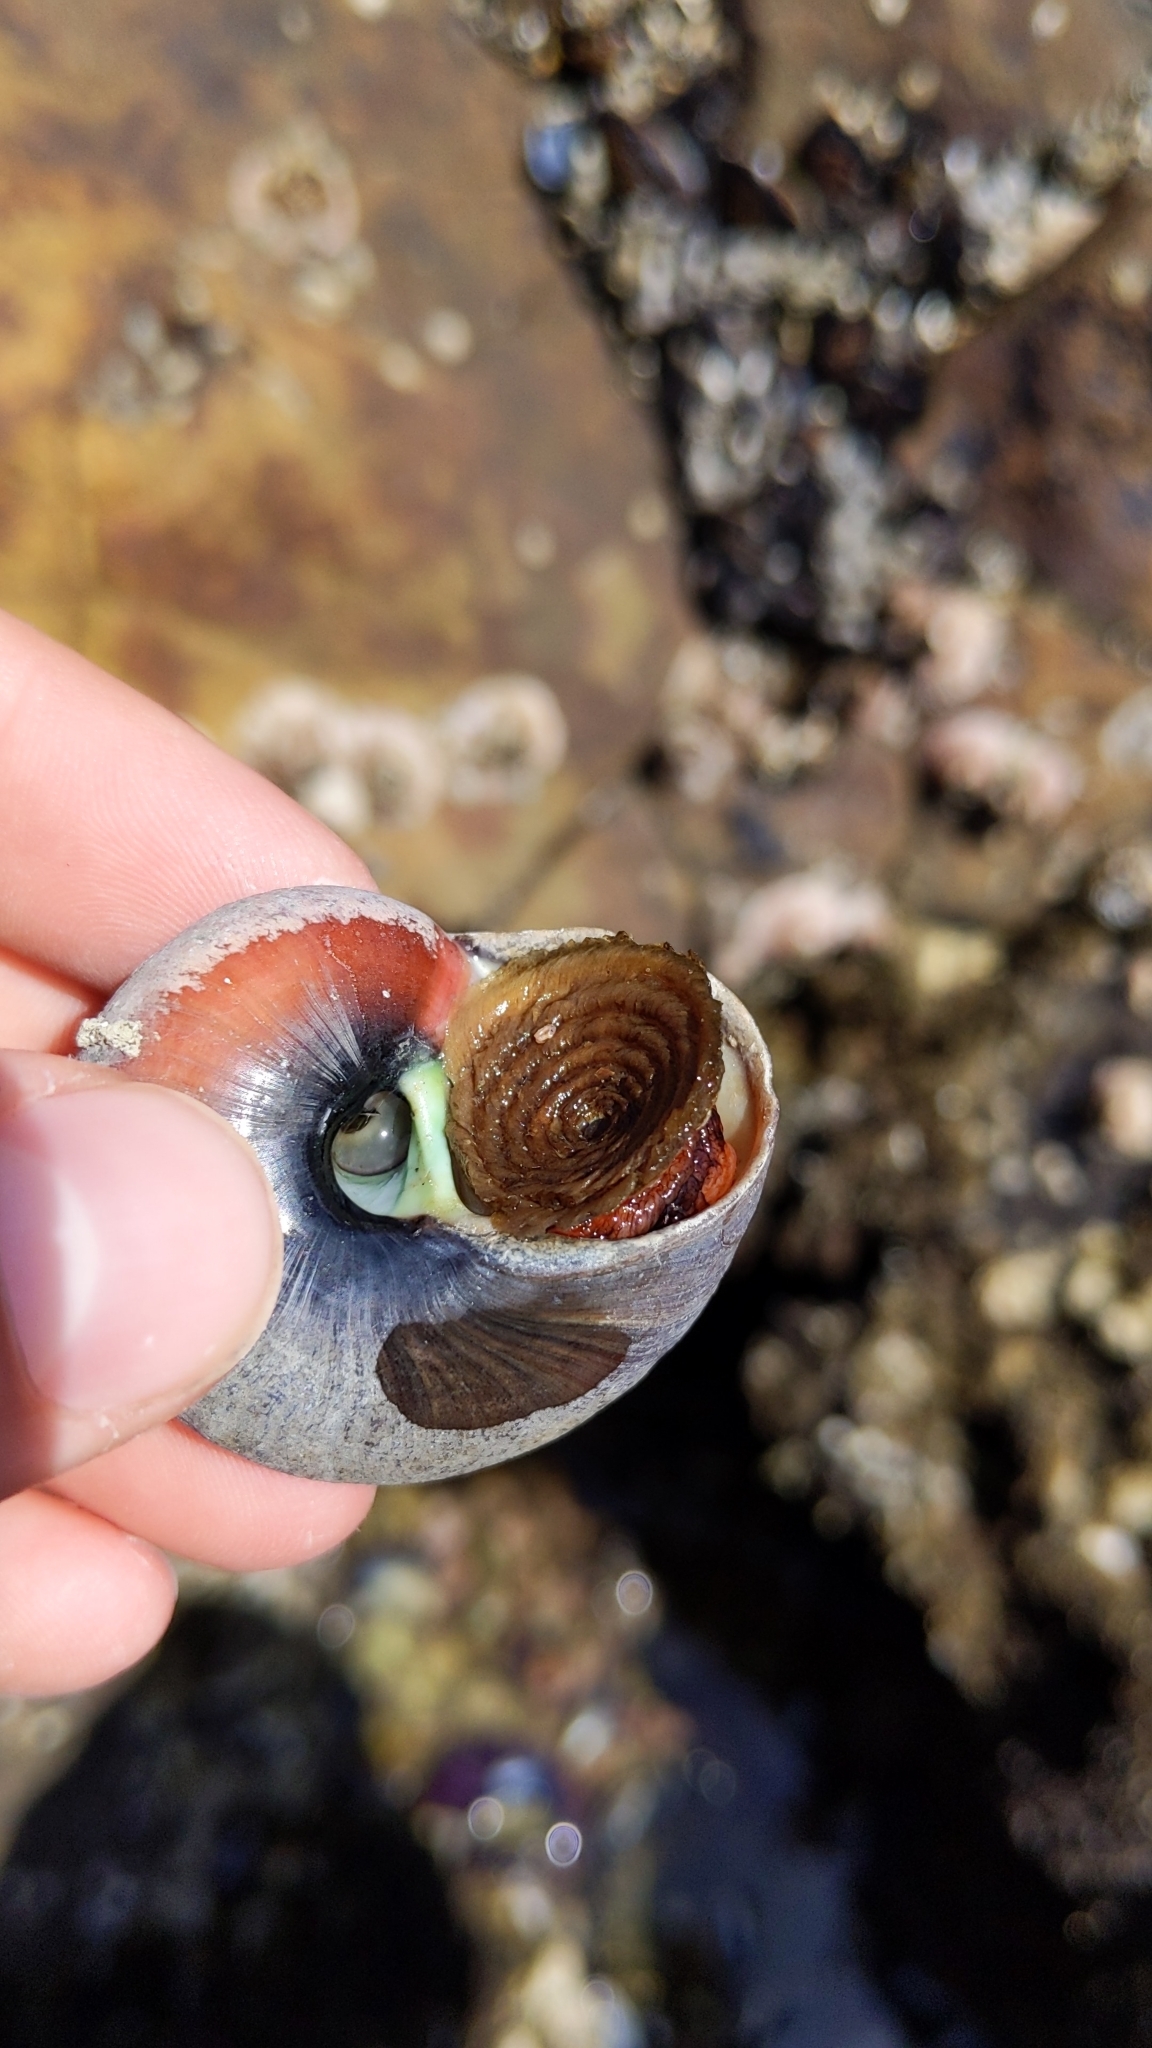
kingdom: Animalia
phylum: Mollusca
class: Gastropoda
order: Trochida
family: Tegulidae
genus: Norrisia
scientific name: Norrisia norrisii
